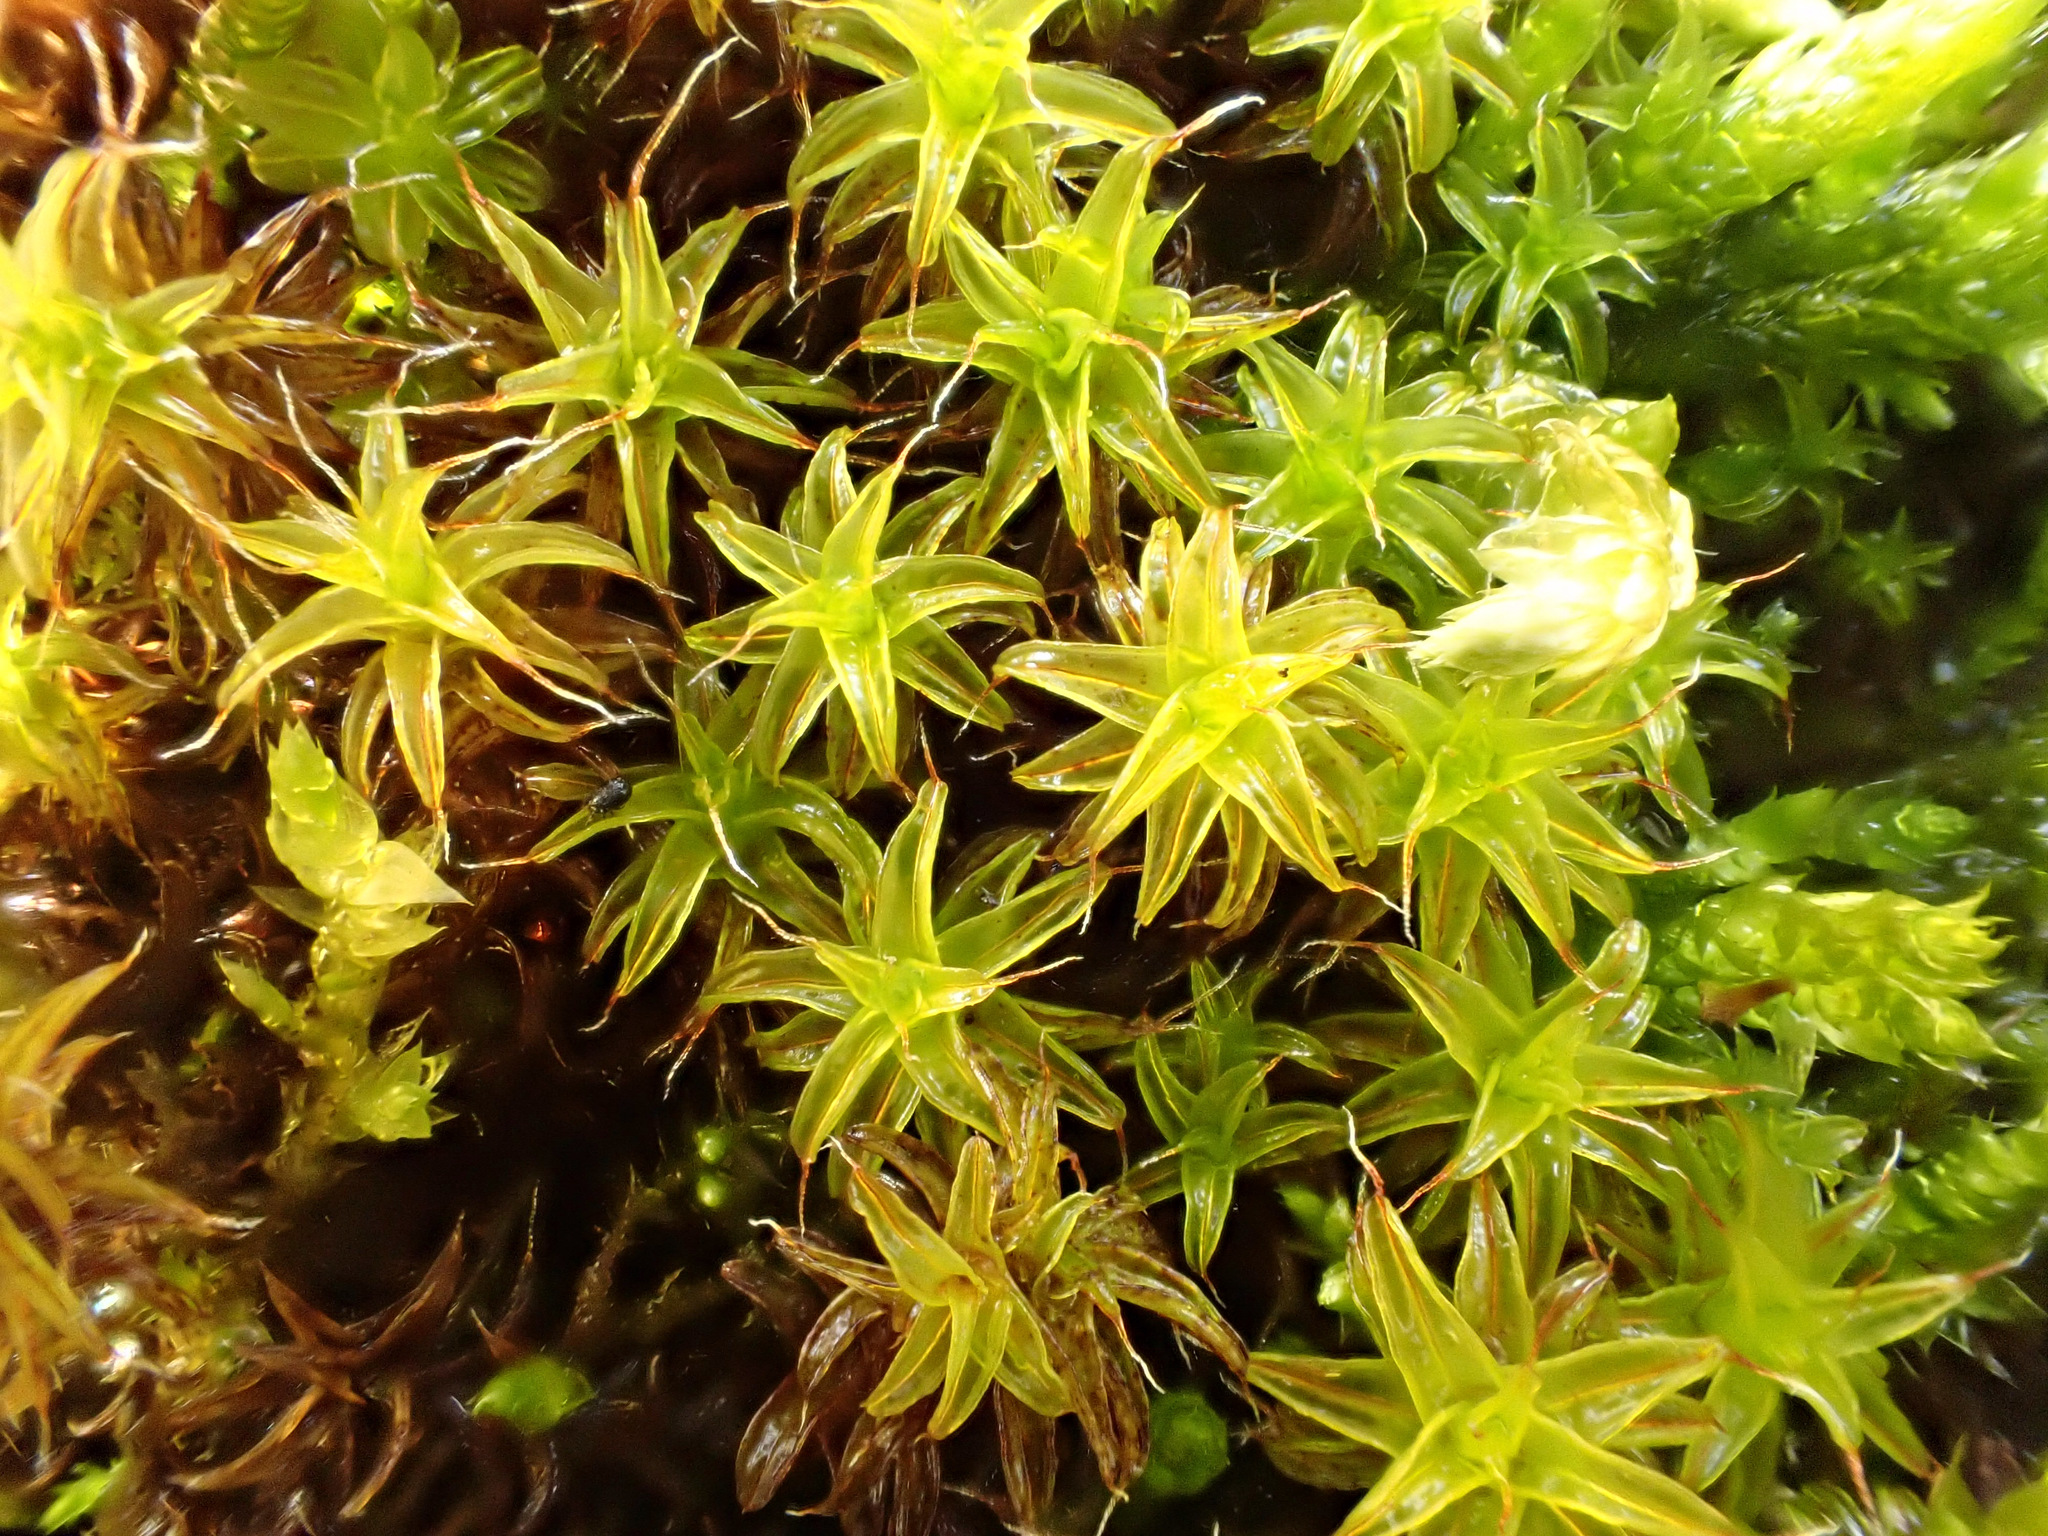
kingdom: Plantae
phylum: Bryophyta
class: Bryopsida
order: Pottiales
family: Pottiaceae
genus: Syntrichia
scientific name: Syntrichia ruralis
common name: Sidewalk screw moss
